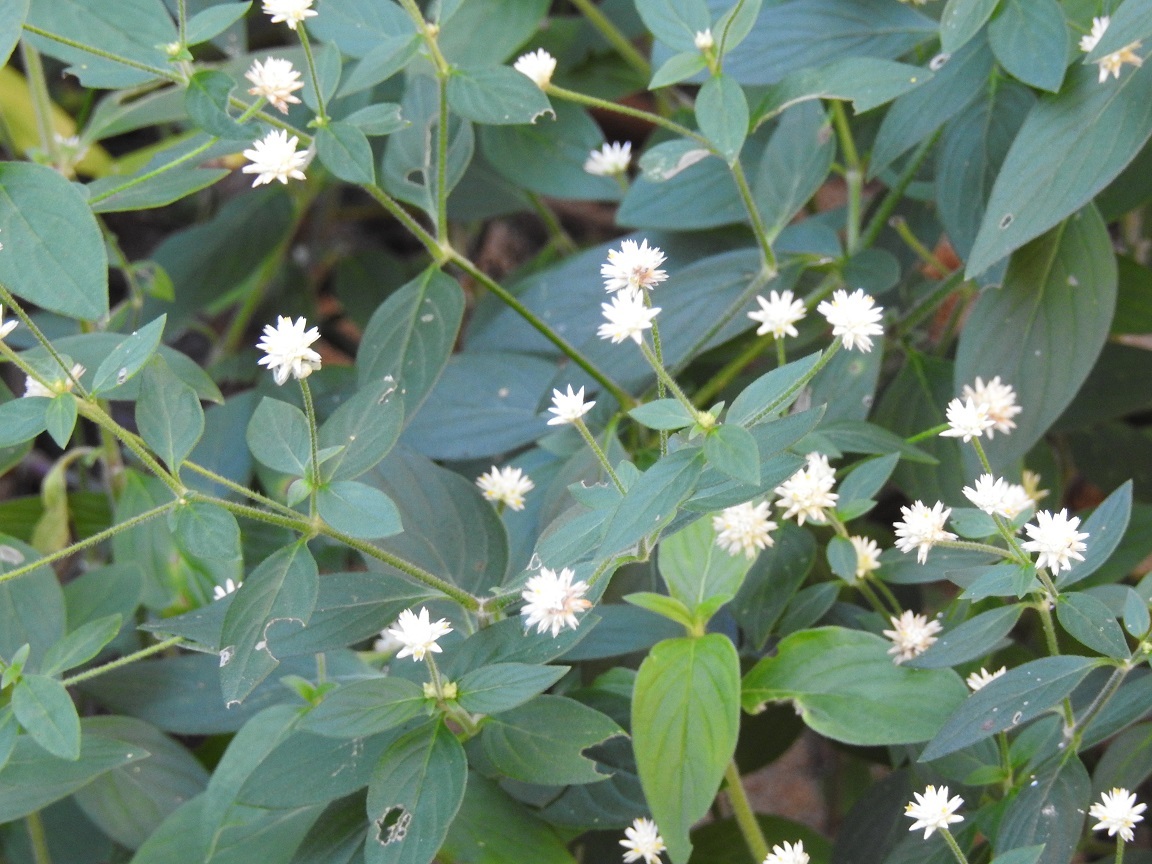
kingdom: Plantae
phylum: Tracheophyta
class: Magnoliopsida
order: Caryophyllales
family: Amaranthaceae
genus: Gomphrena
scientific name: Gomphrena serrata
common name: Arrasa con todo
